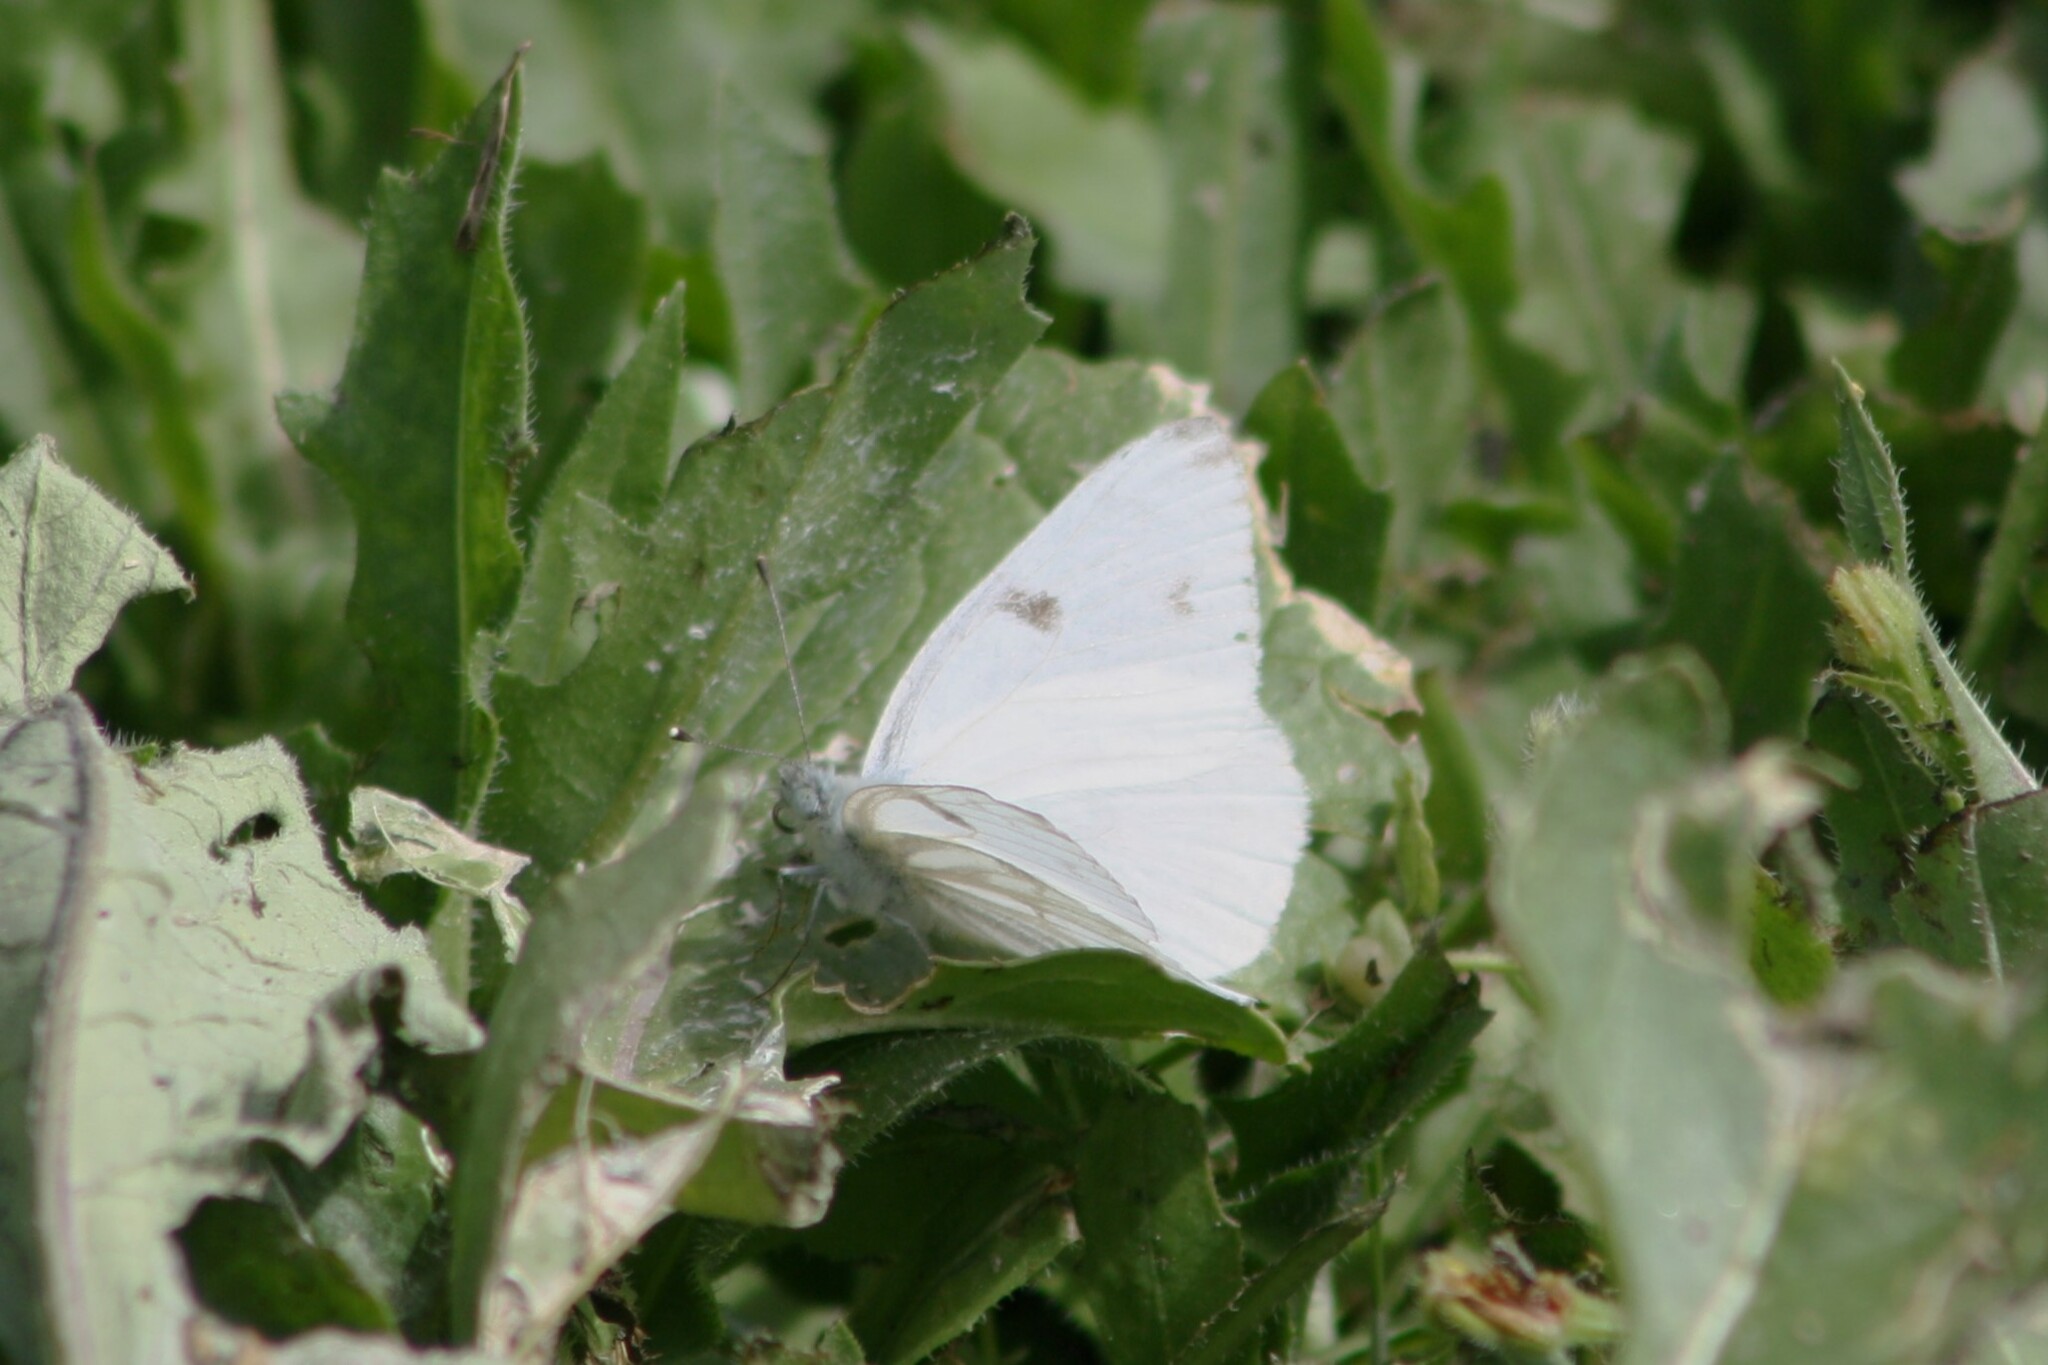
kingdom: Animalia
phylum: Arthropoda
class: Insecta
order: Lepidoptera
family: Pieridae
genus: Pontia
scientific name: Pontia protodice
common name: Checkered white
